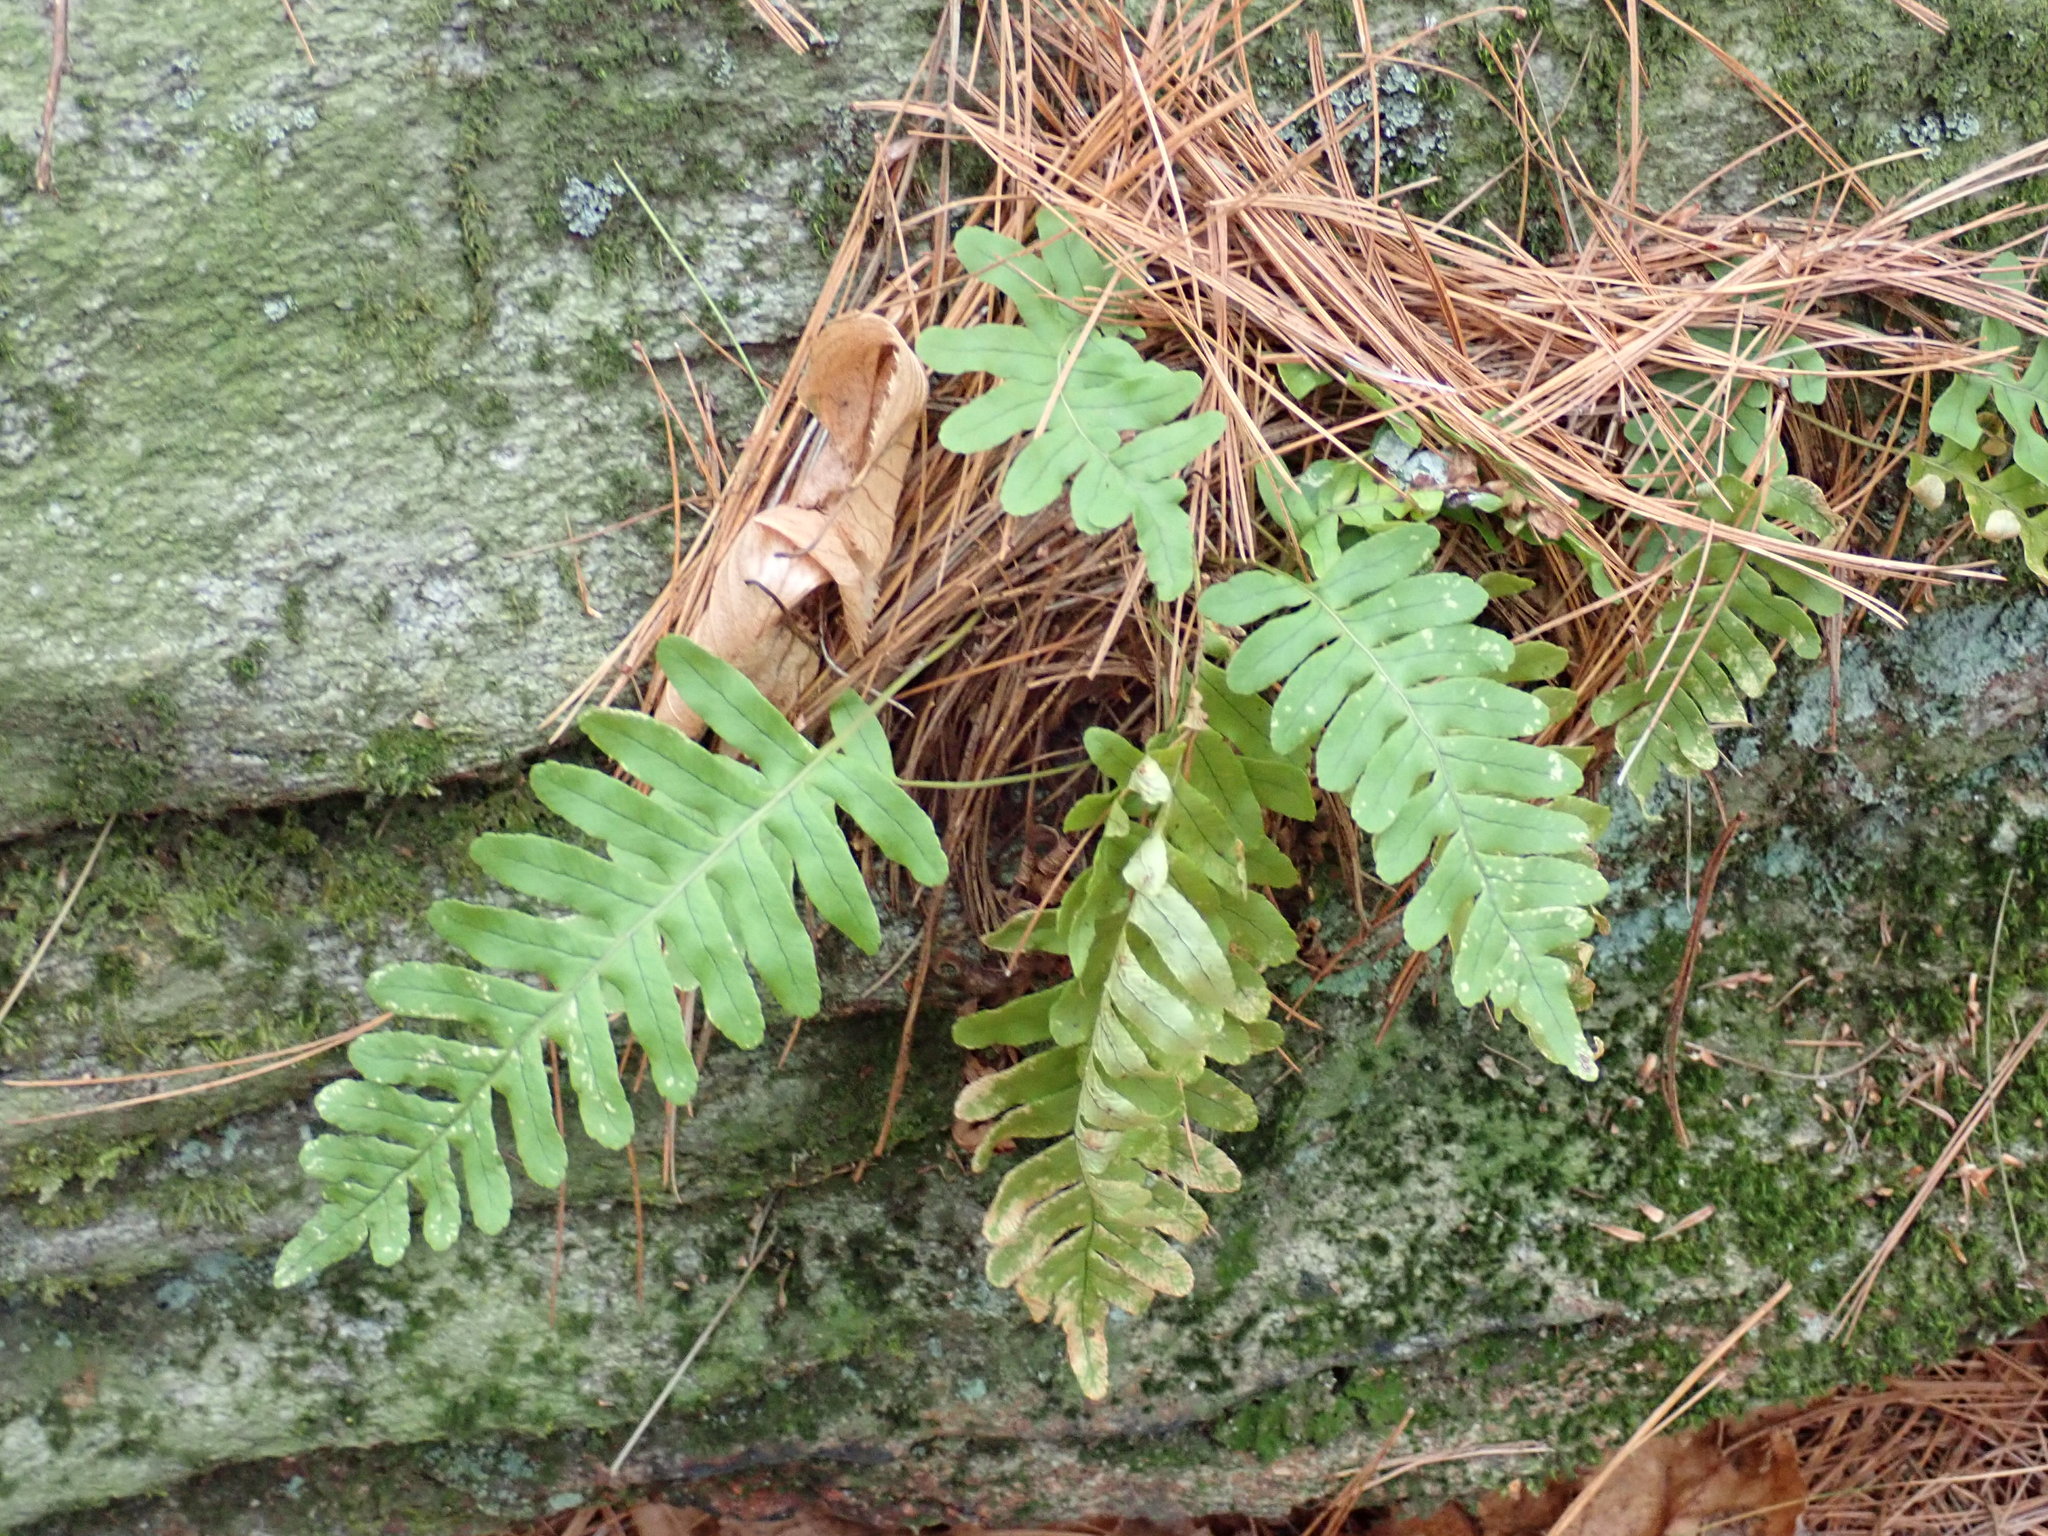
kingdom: Plantae
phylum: Tracheophyta
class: Polypodiopsida
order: Polypodiales
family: Polypodiaceae
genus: Polypodium
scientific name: Polypodium
